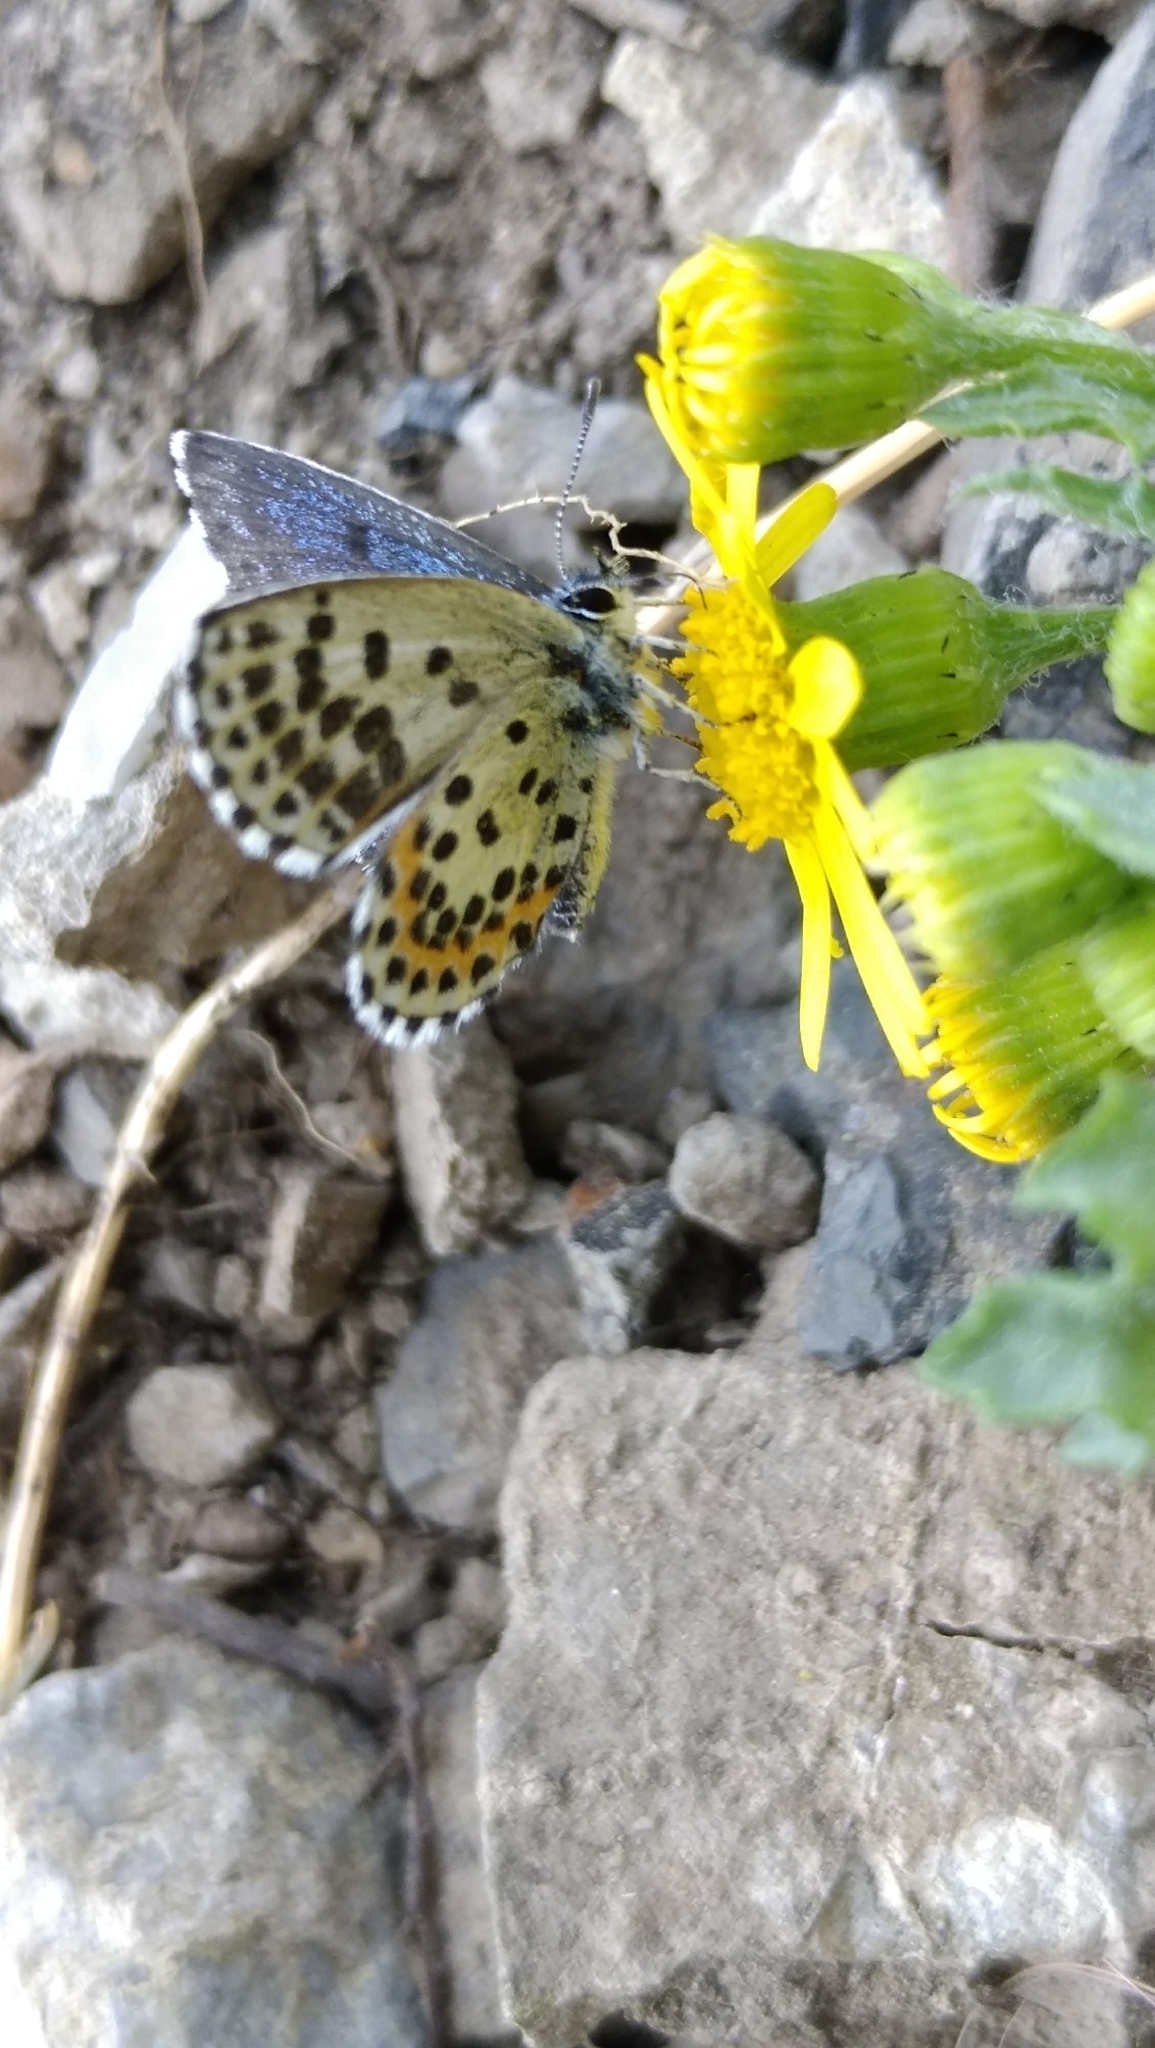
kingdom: Animalia
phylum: Arthropoda
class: Insecta
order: Lepidoptera
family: Lycaenidae
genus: Scolitantides
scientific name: Scolitantides orion
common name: Chequered blue
